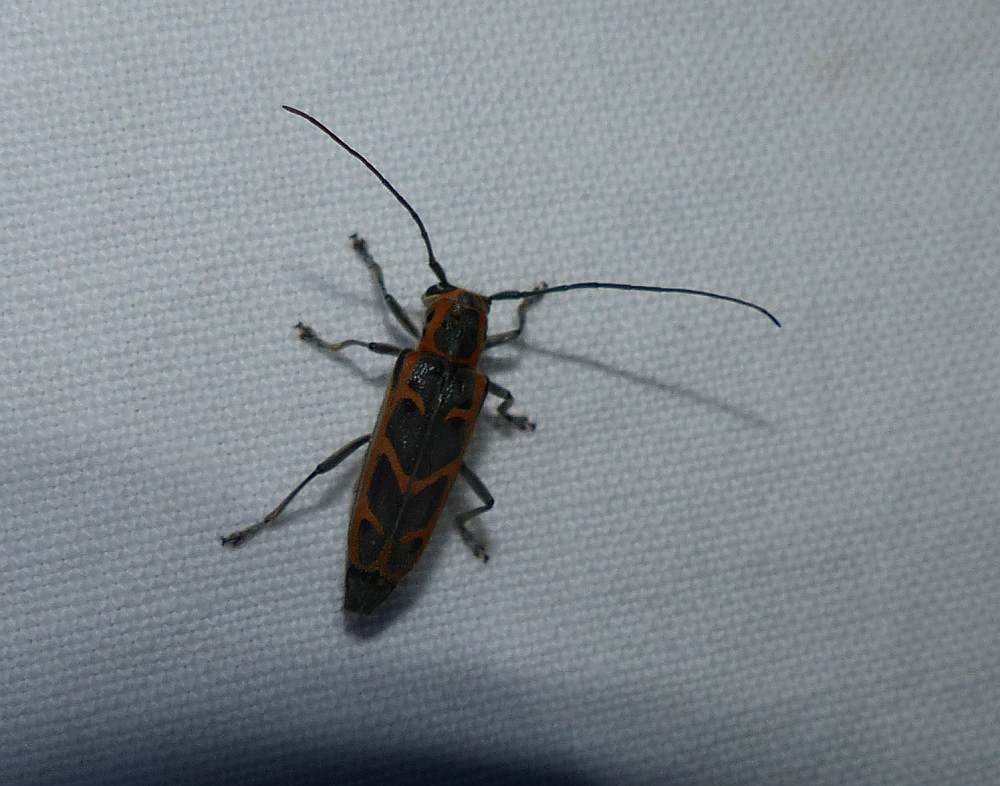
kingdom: Animalia
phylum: Arthropoda
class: Insecta
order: Coleoptera
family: Cerambycidae
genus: Saperda
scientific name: Saperda tridentata
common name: Elm borer
